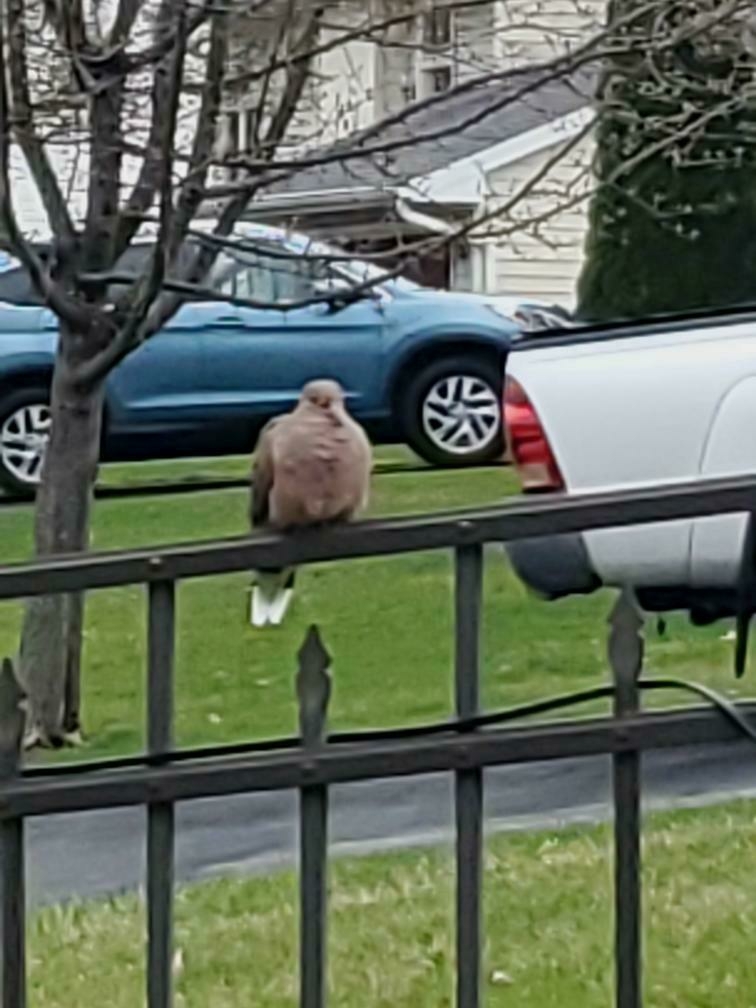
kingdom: Animalia
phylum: Chordata
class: Aves
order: Columbiformes
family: Columbidae
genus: Zenaida
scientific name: Zenaida macroura
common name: Mourning dove
